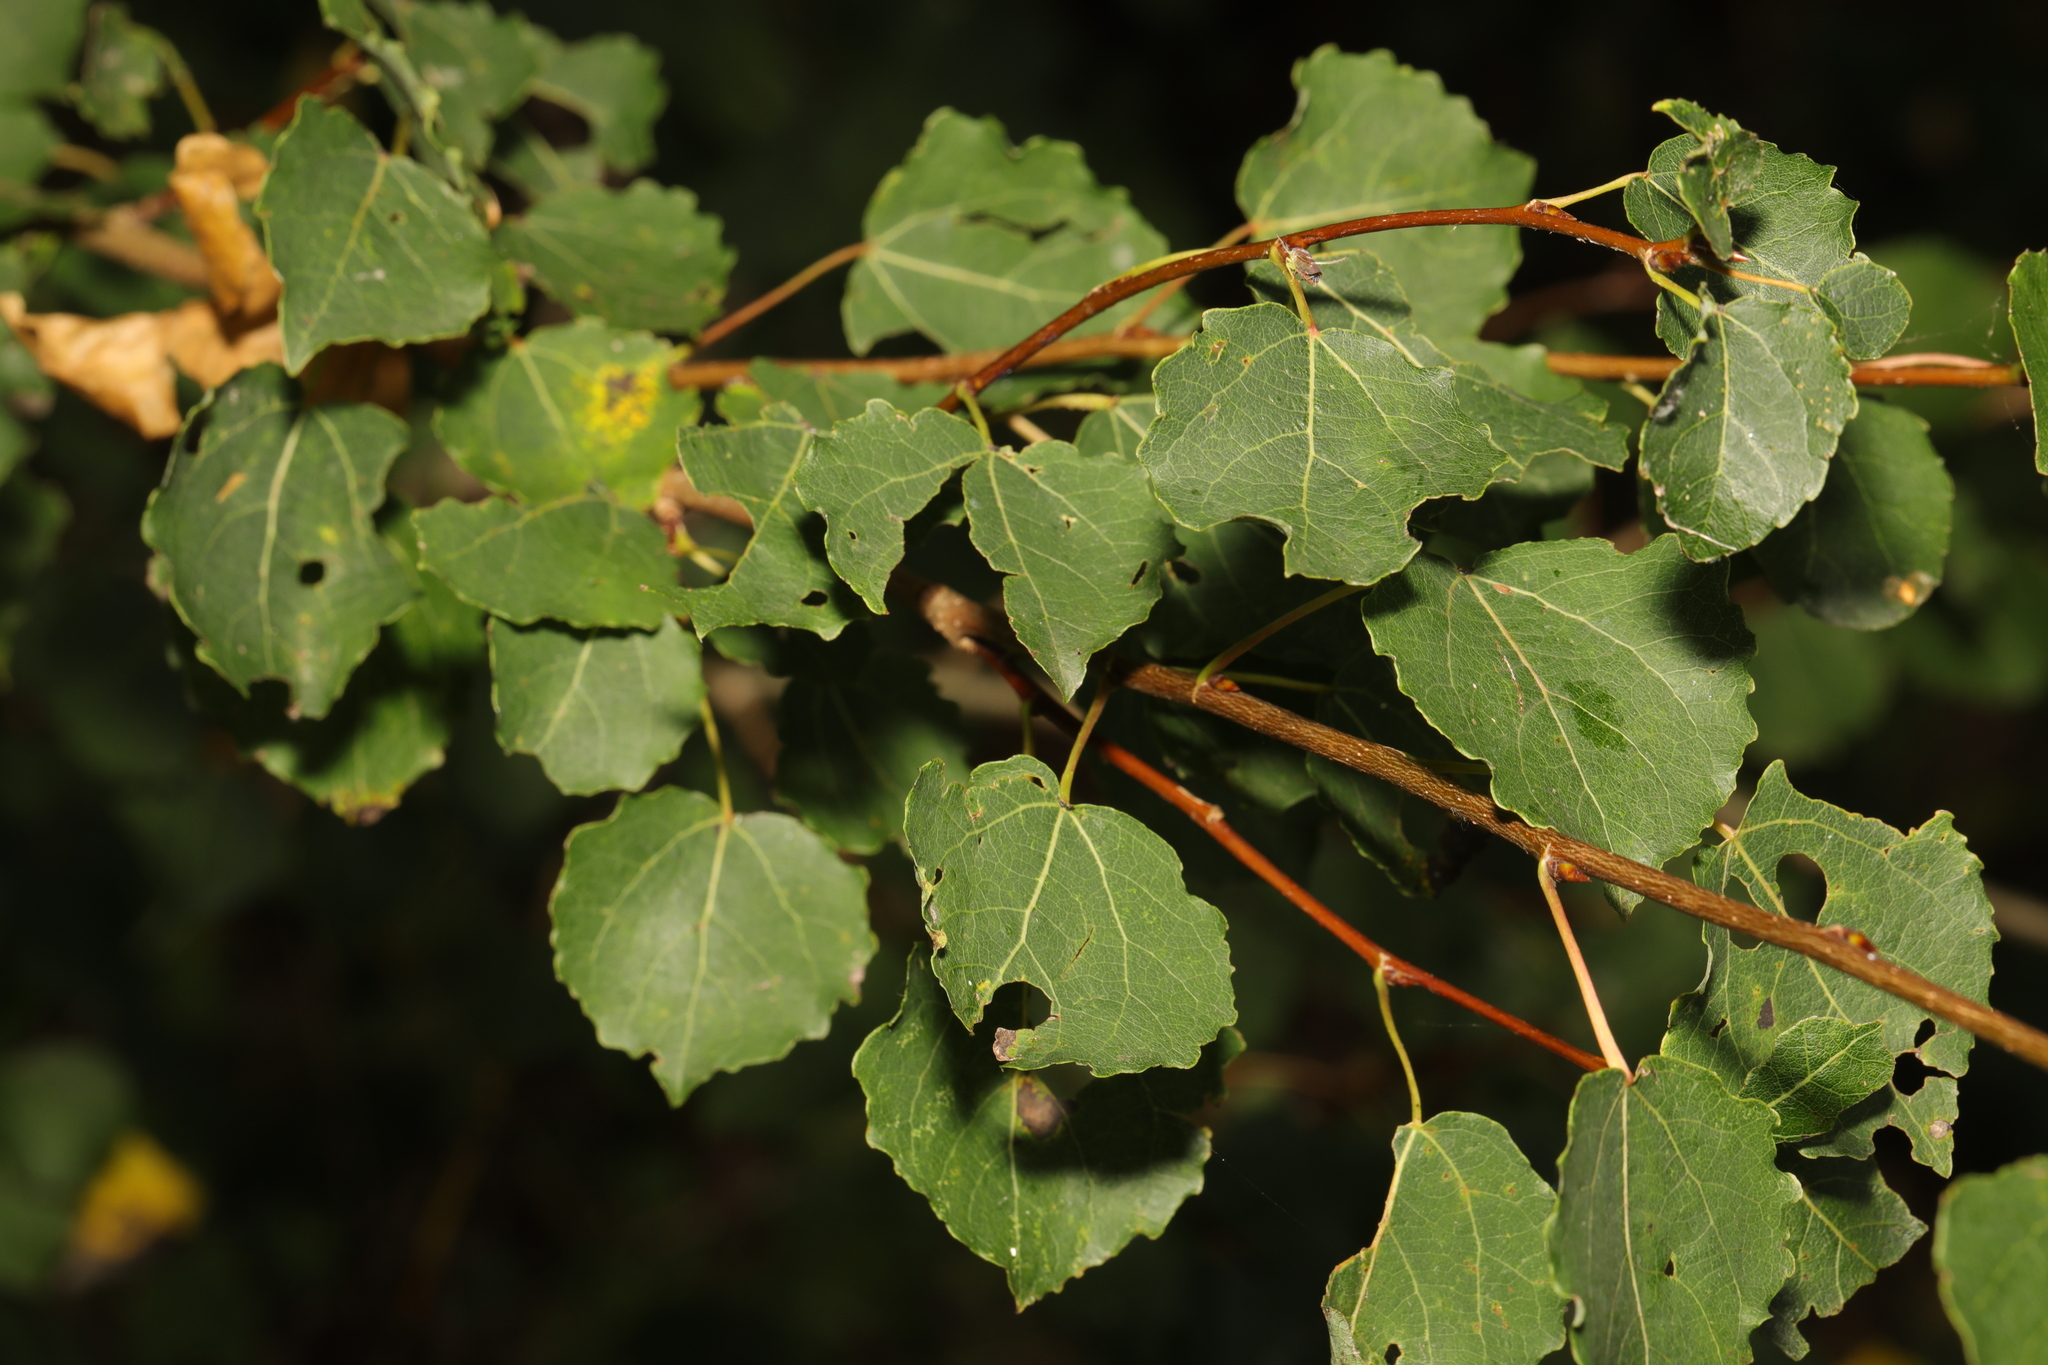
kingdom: Plantae
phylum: Tracheophyta
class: Magnoliopsida
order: Malpighiales
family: Salicaceae
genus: Populus
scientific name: Populus tremula
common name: European aspen
